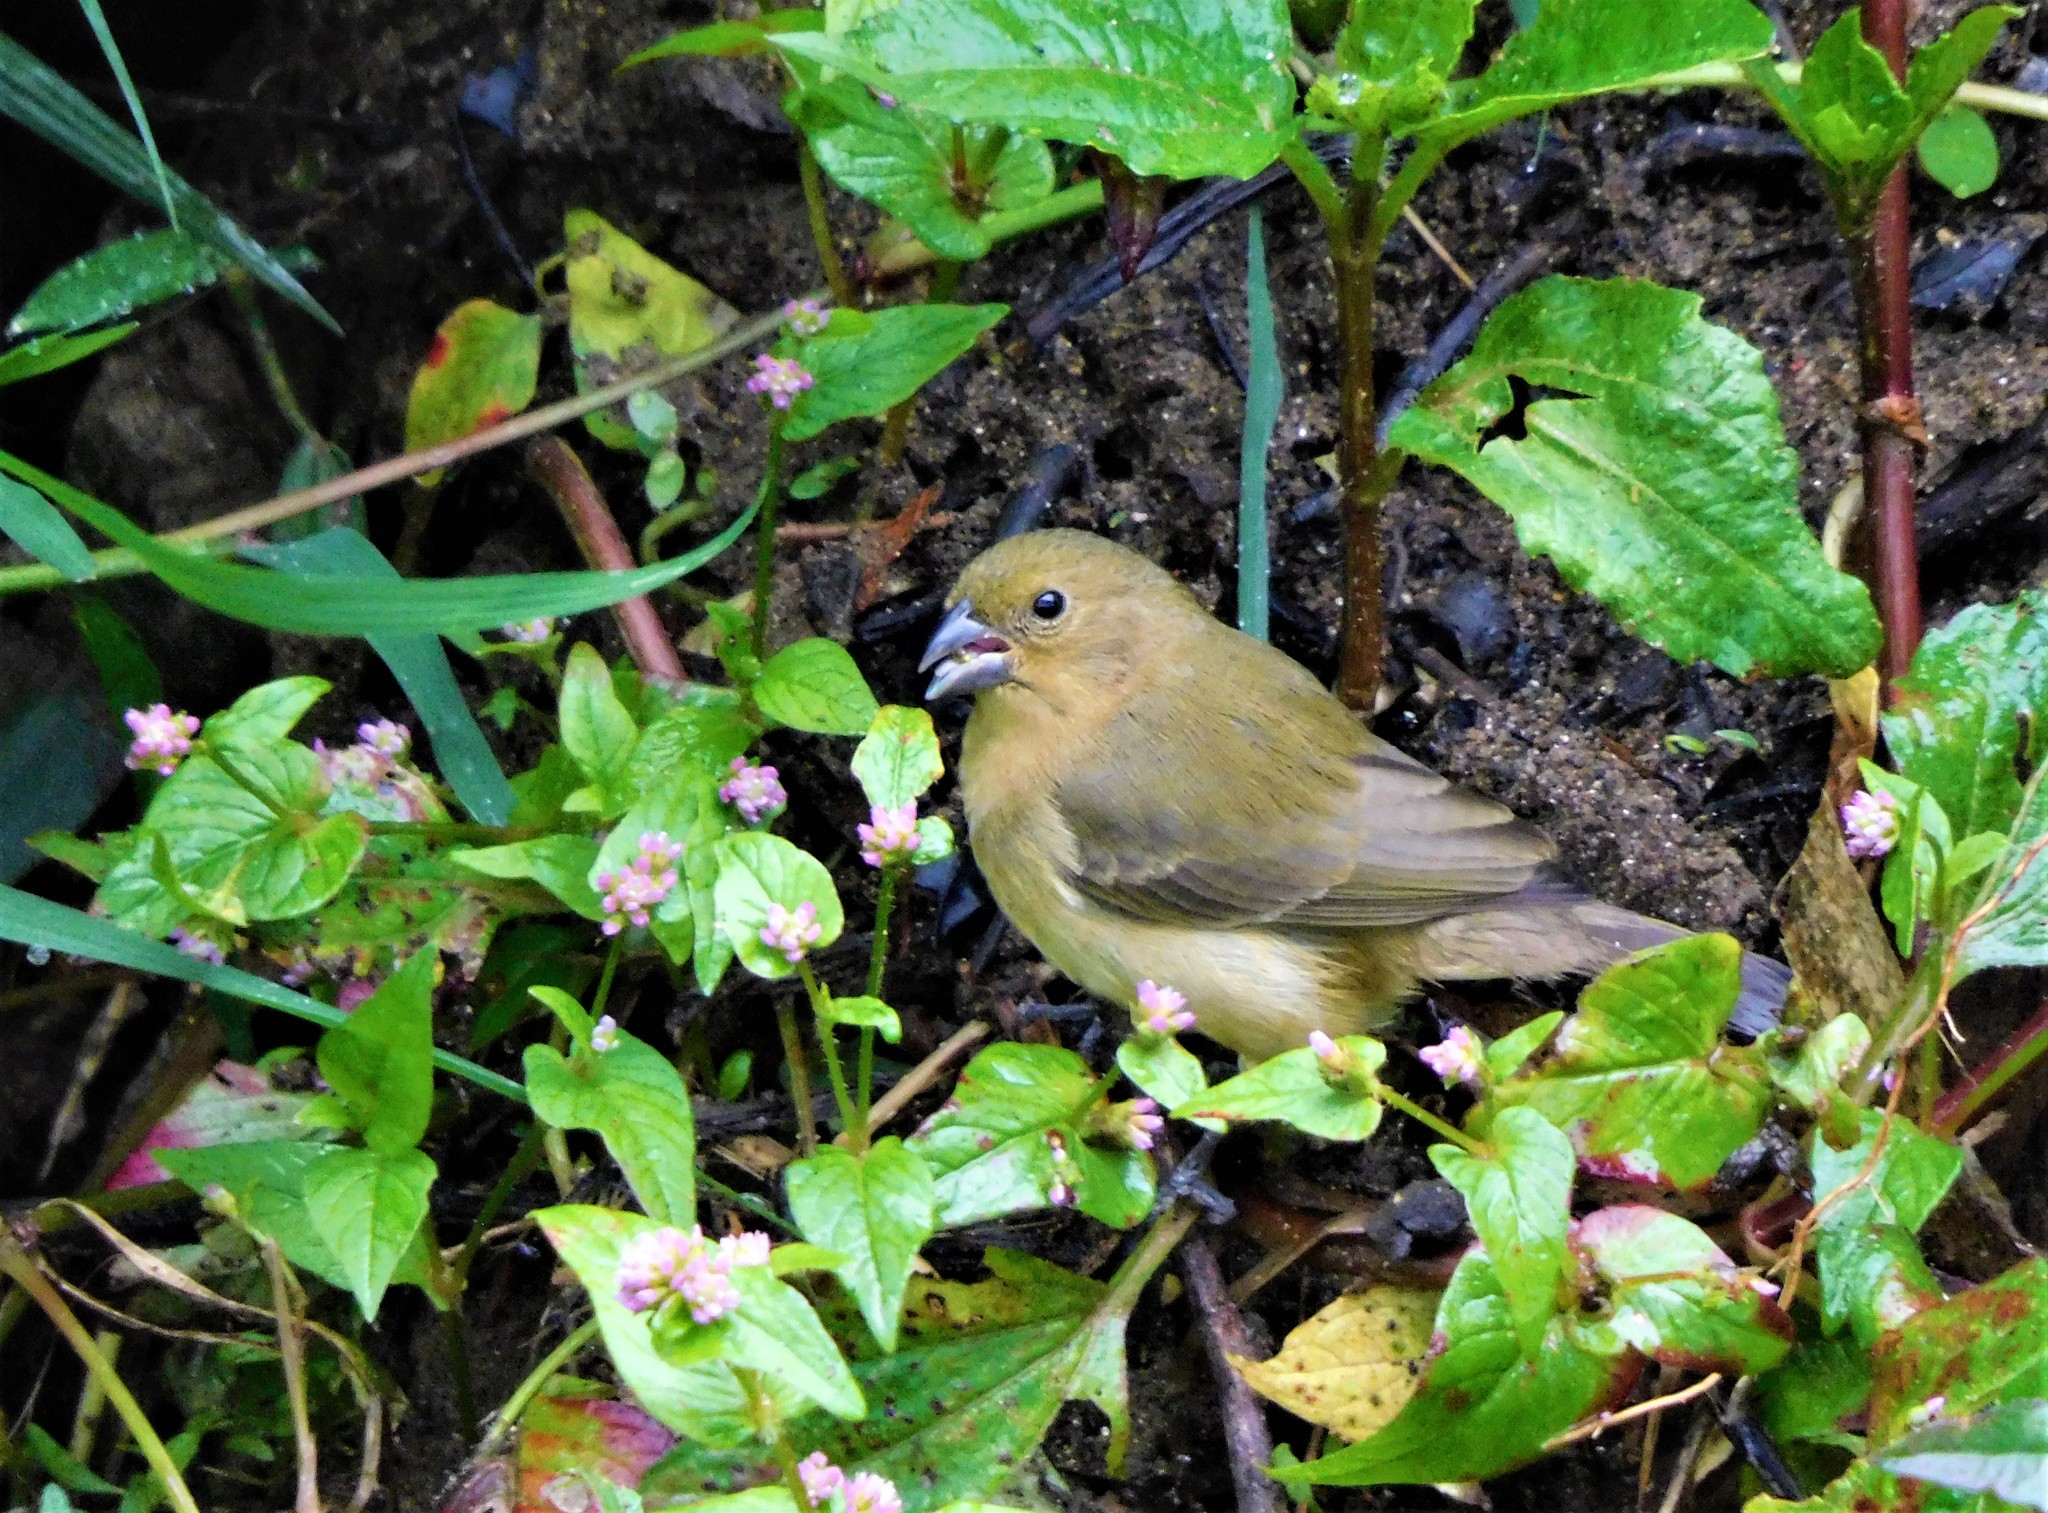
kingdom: Animalia
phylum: Chordata
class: Aves
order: Passeriformes
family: Thraupidae
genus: Sporophila
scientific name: Sporophila nigricollis
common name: Yellow-bellied seedeater
